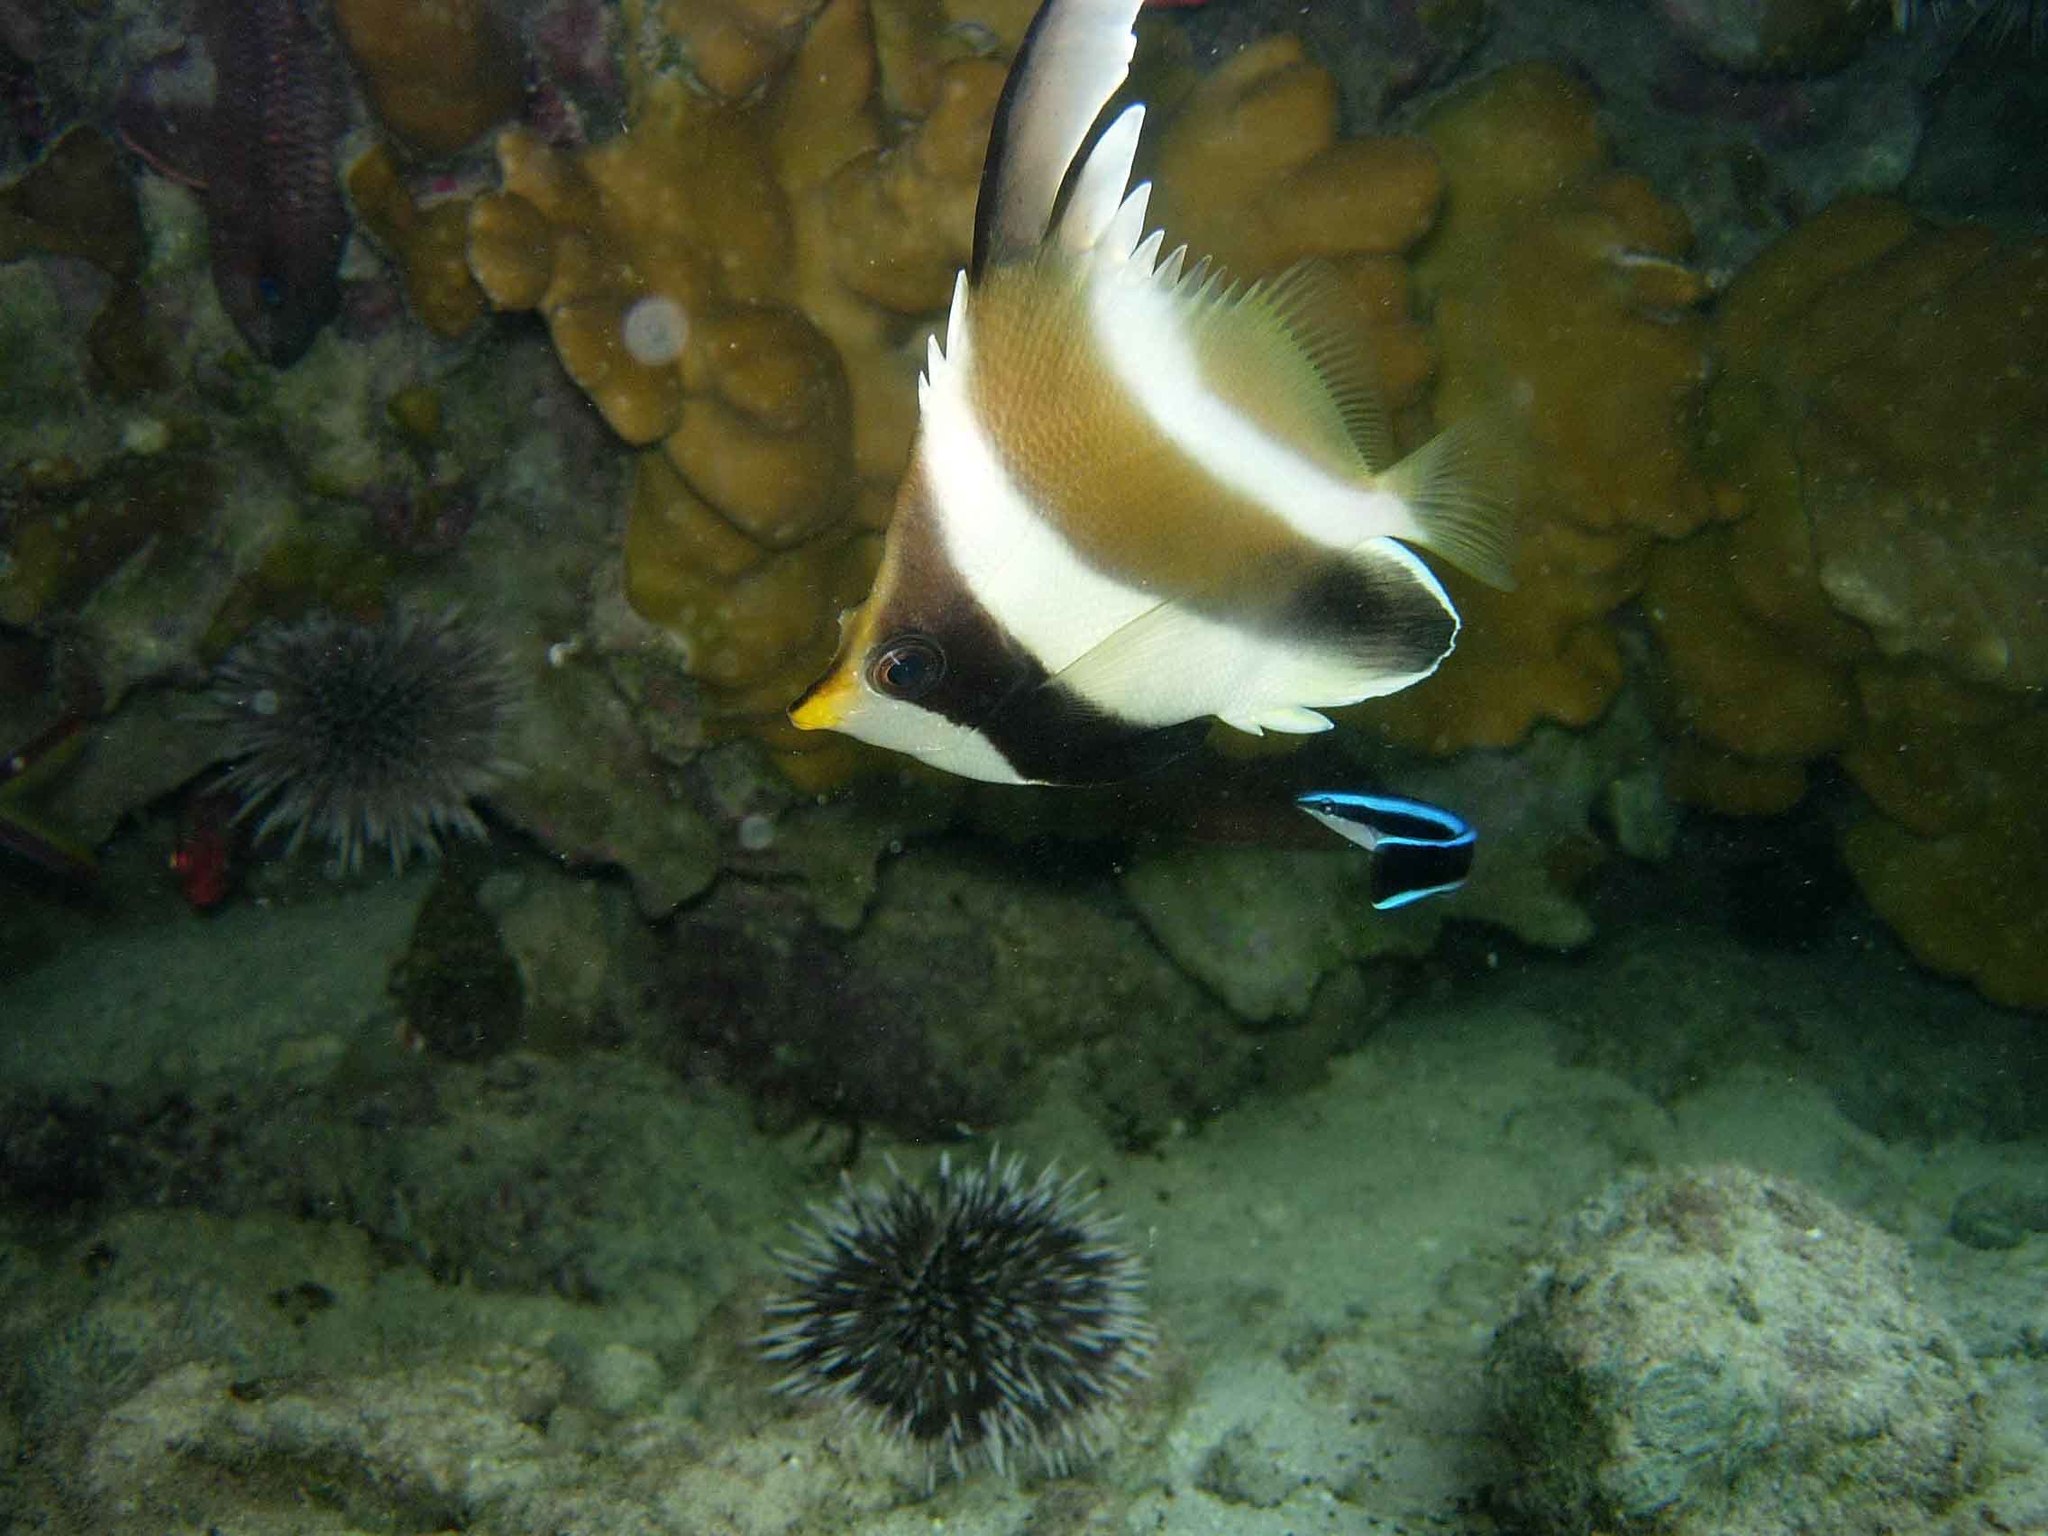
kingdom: Animalia
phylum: Chordata
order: Perciformes
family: Labridae
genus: Labroides
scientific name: Labroides dimidiatus
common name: Blue diesel wrasse
